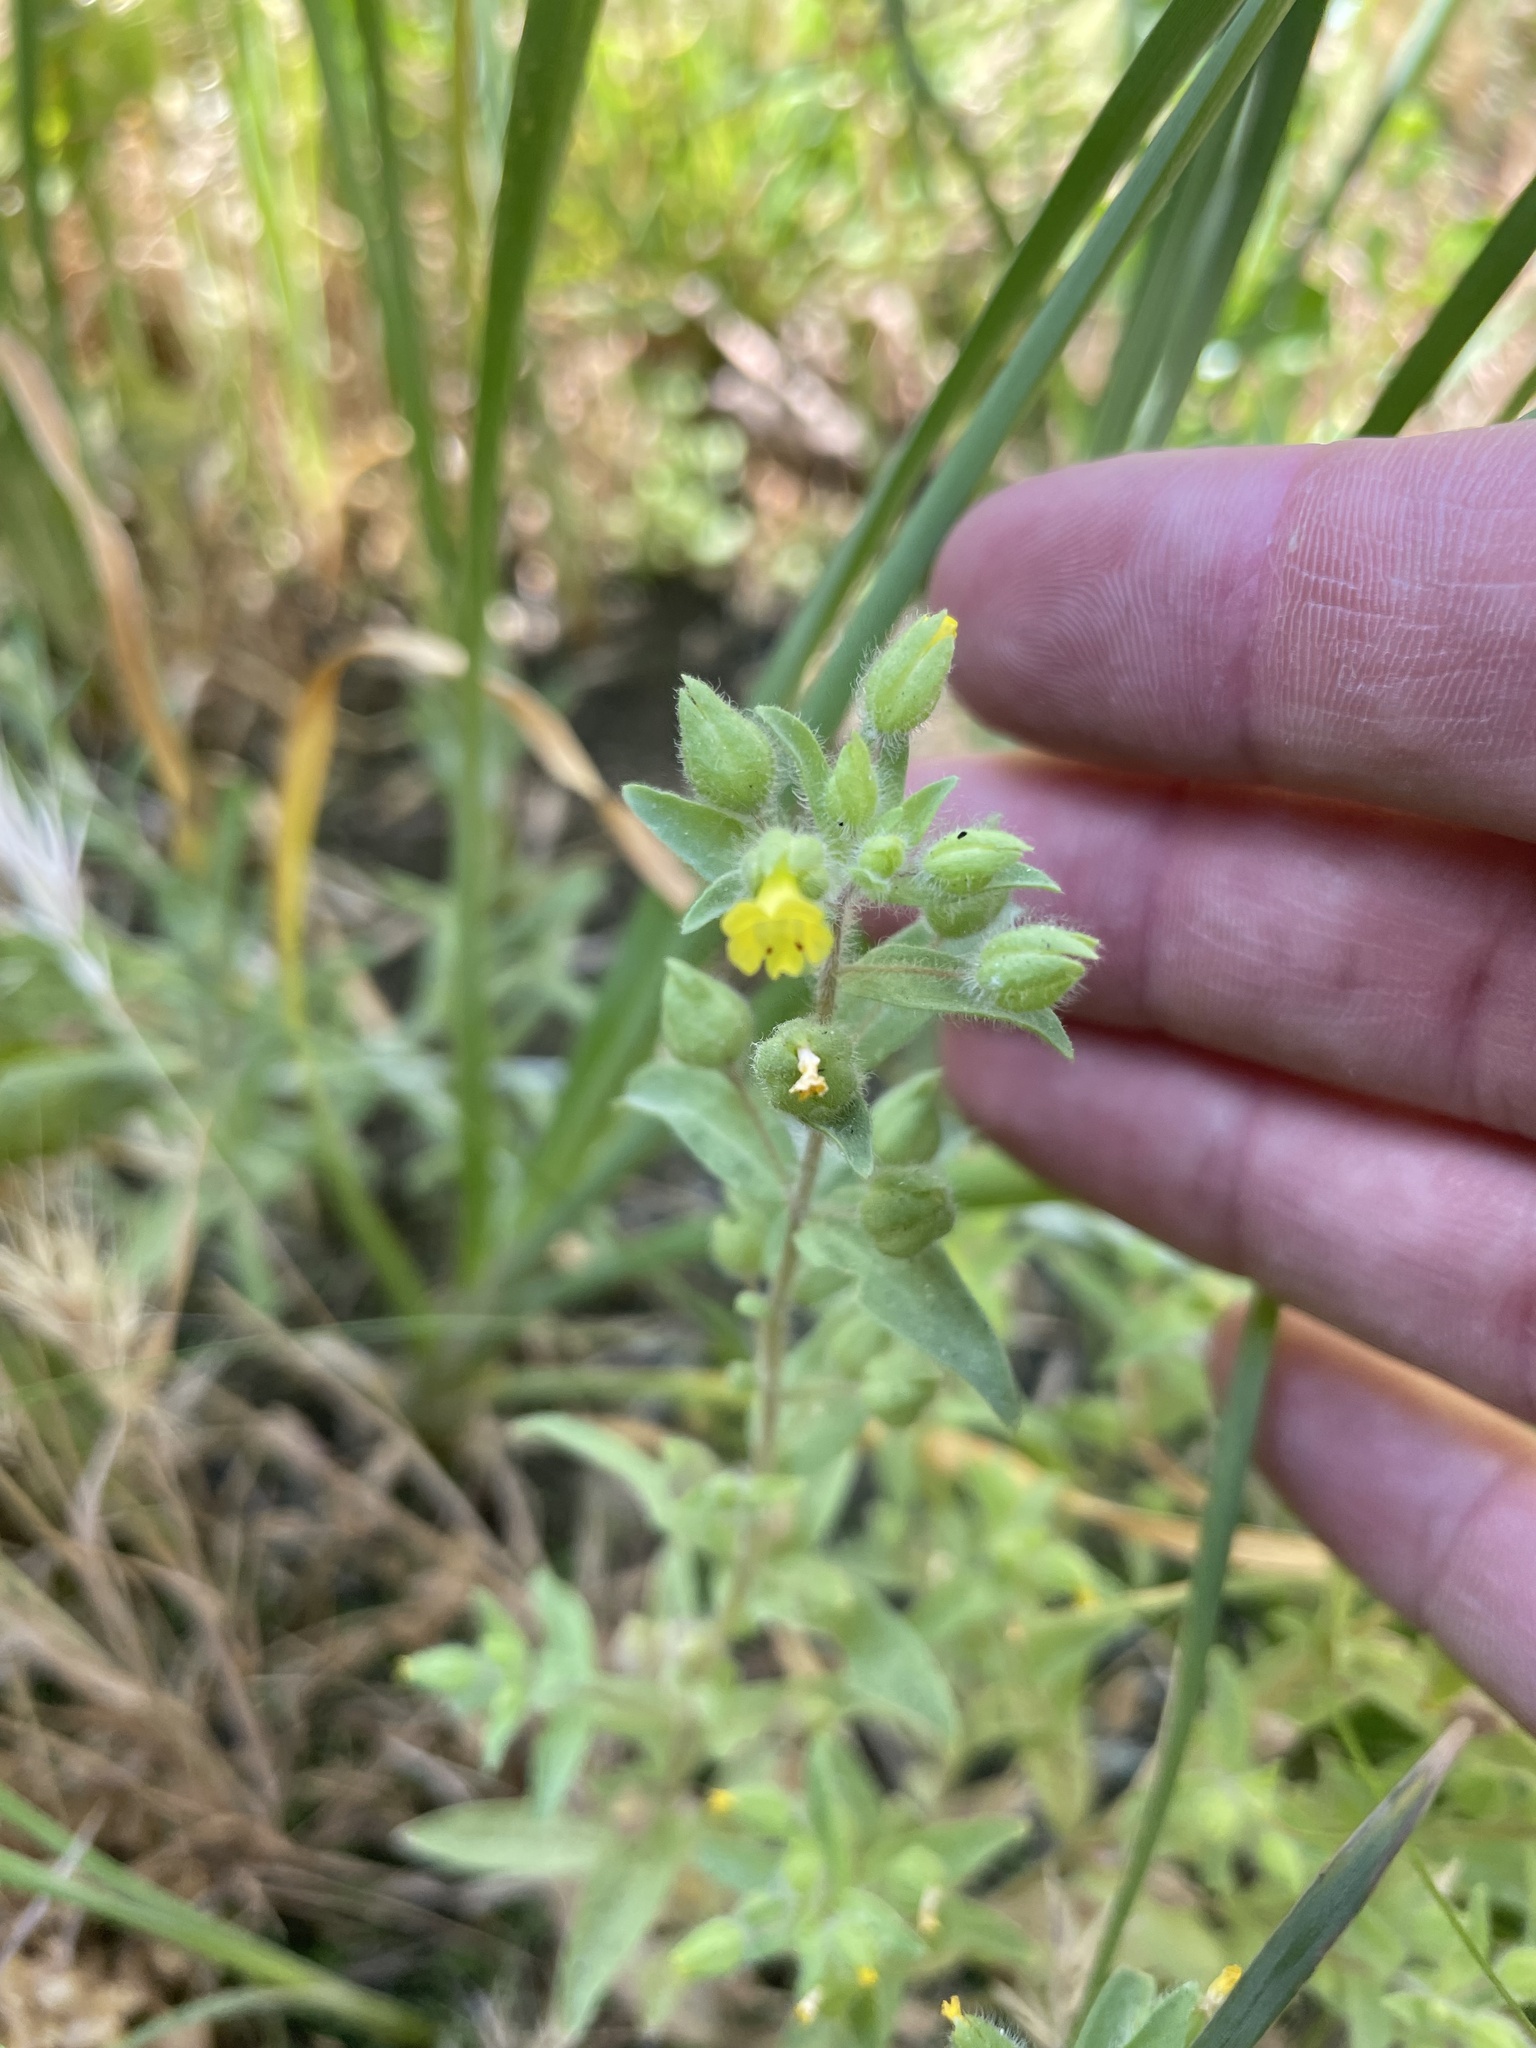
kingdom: Plantae
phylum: Tracheophyta
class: Magnoliopsida
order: Lamiales
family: Phrymaceae
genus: Mimetanthe
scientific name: Mimetanthe pilosa
